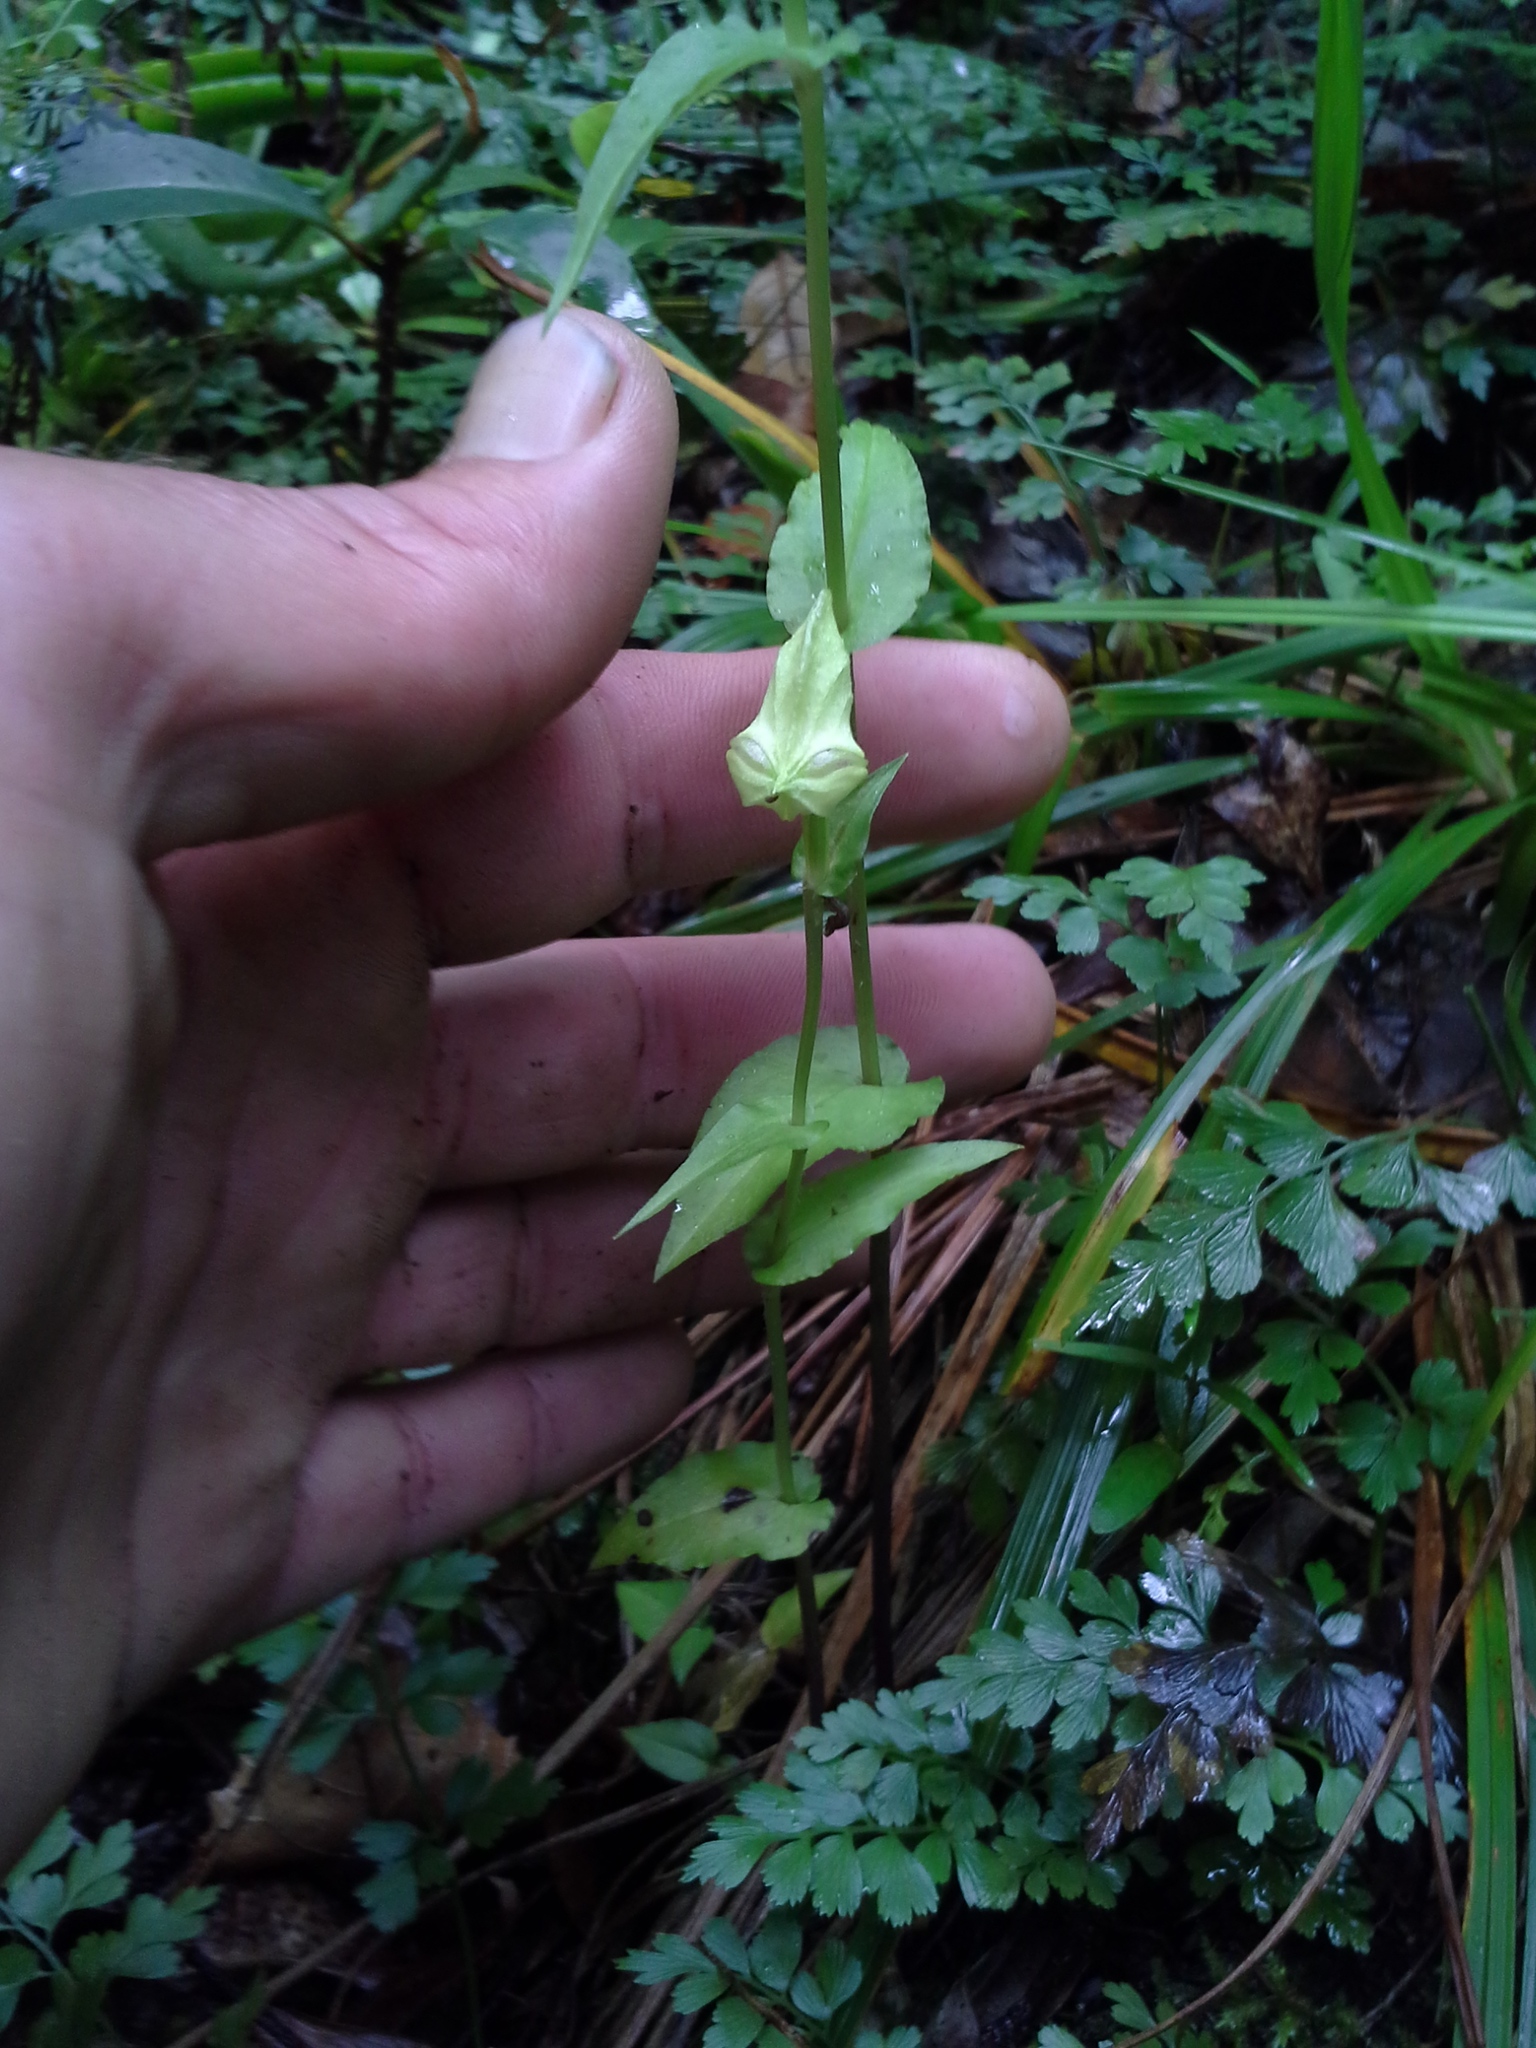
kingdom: Plantae
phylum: Tracheophyta
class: Liliopsida
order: Asparagales
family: Orchidaceae
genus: Disperis
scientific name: Disperis fanniniae
